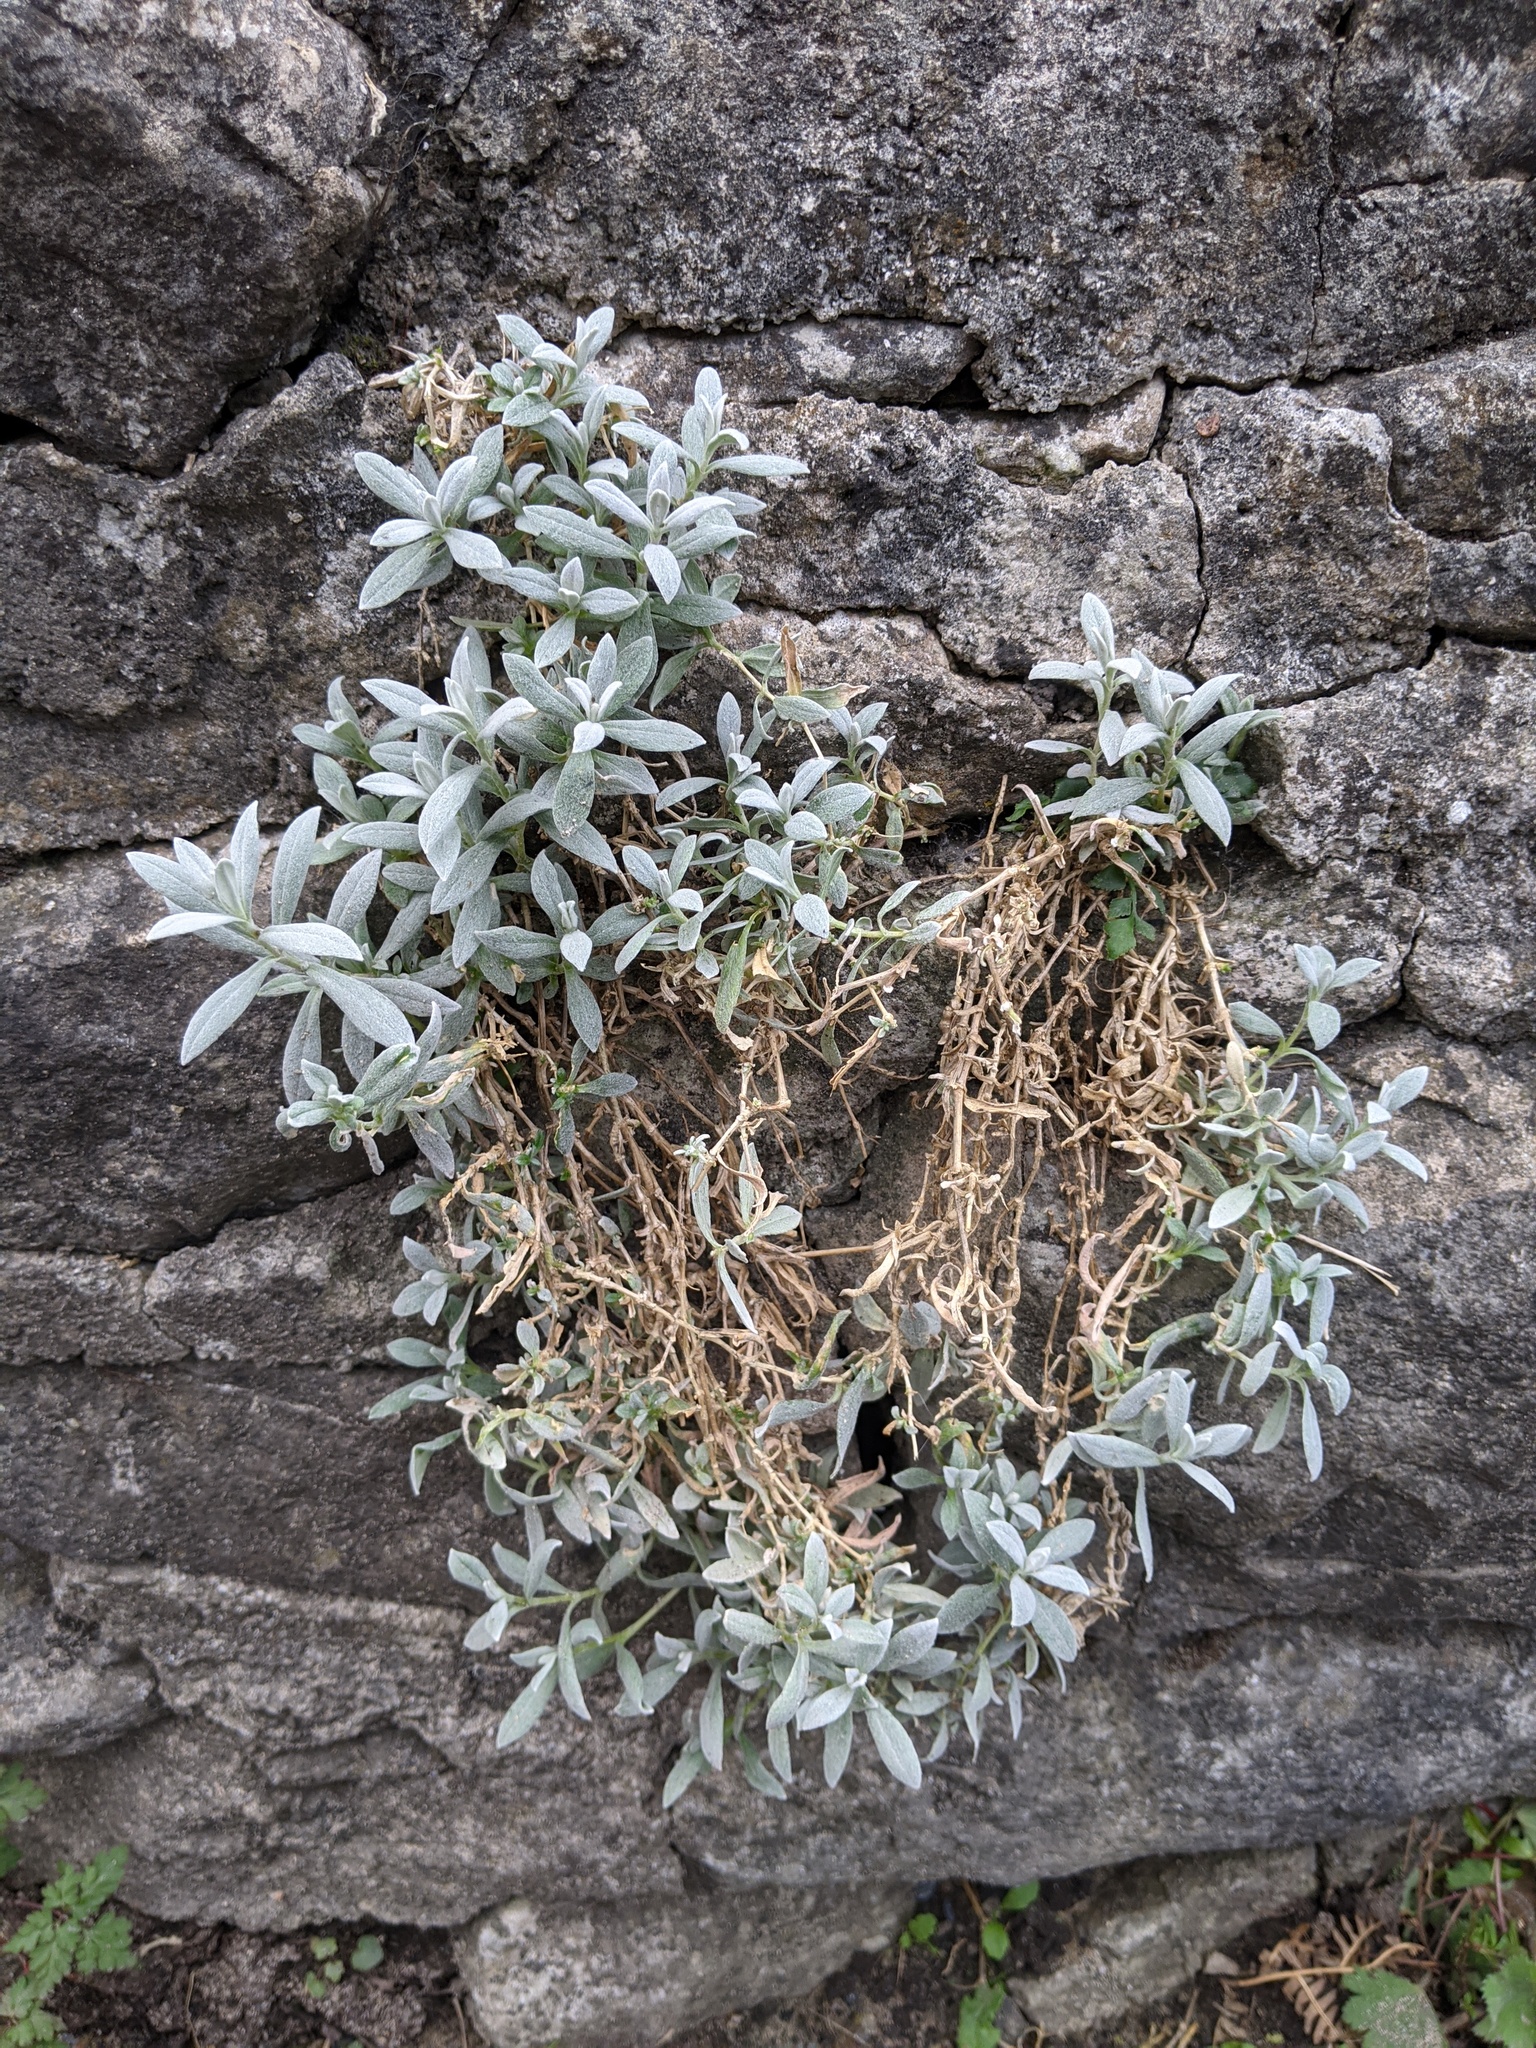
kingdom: Plantae
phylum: Tracheophyta
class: Magnoliopsida
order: Caryophyllales
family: Caryophyllaceae
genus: Cerastium
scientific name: Cerastium tomentosum
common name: Snow-in-summer
